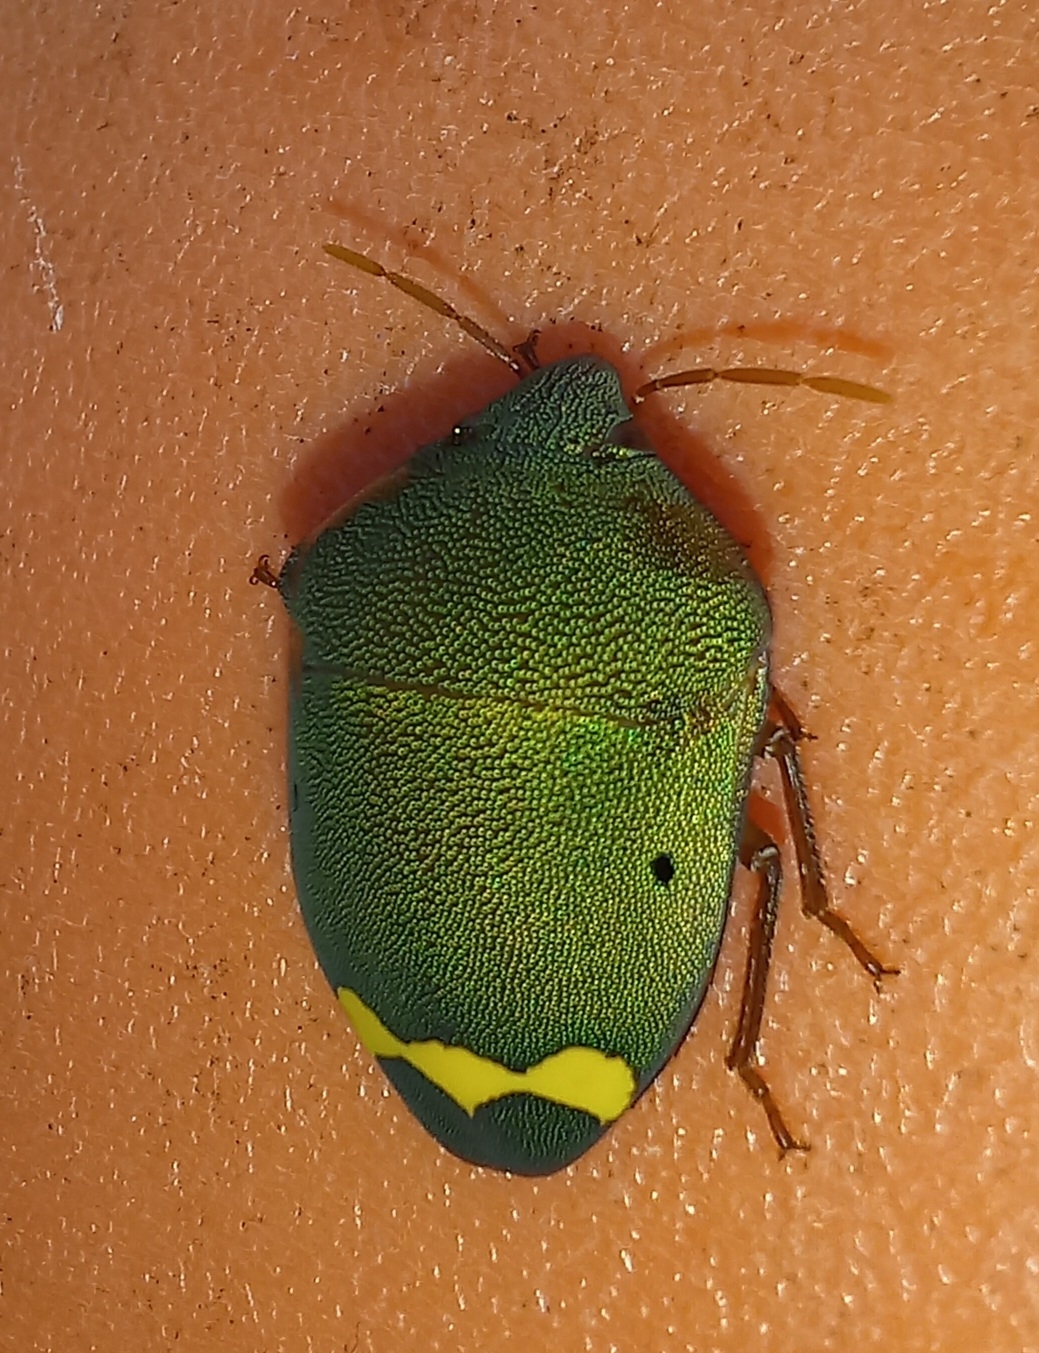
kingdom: Animalia
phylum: Arthropoda
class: Insecta
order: Hemiptera
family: Scutelleridae
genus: Solenosthedium
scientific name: Solenosthedium
